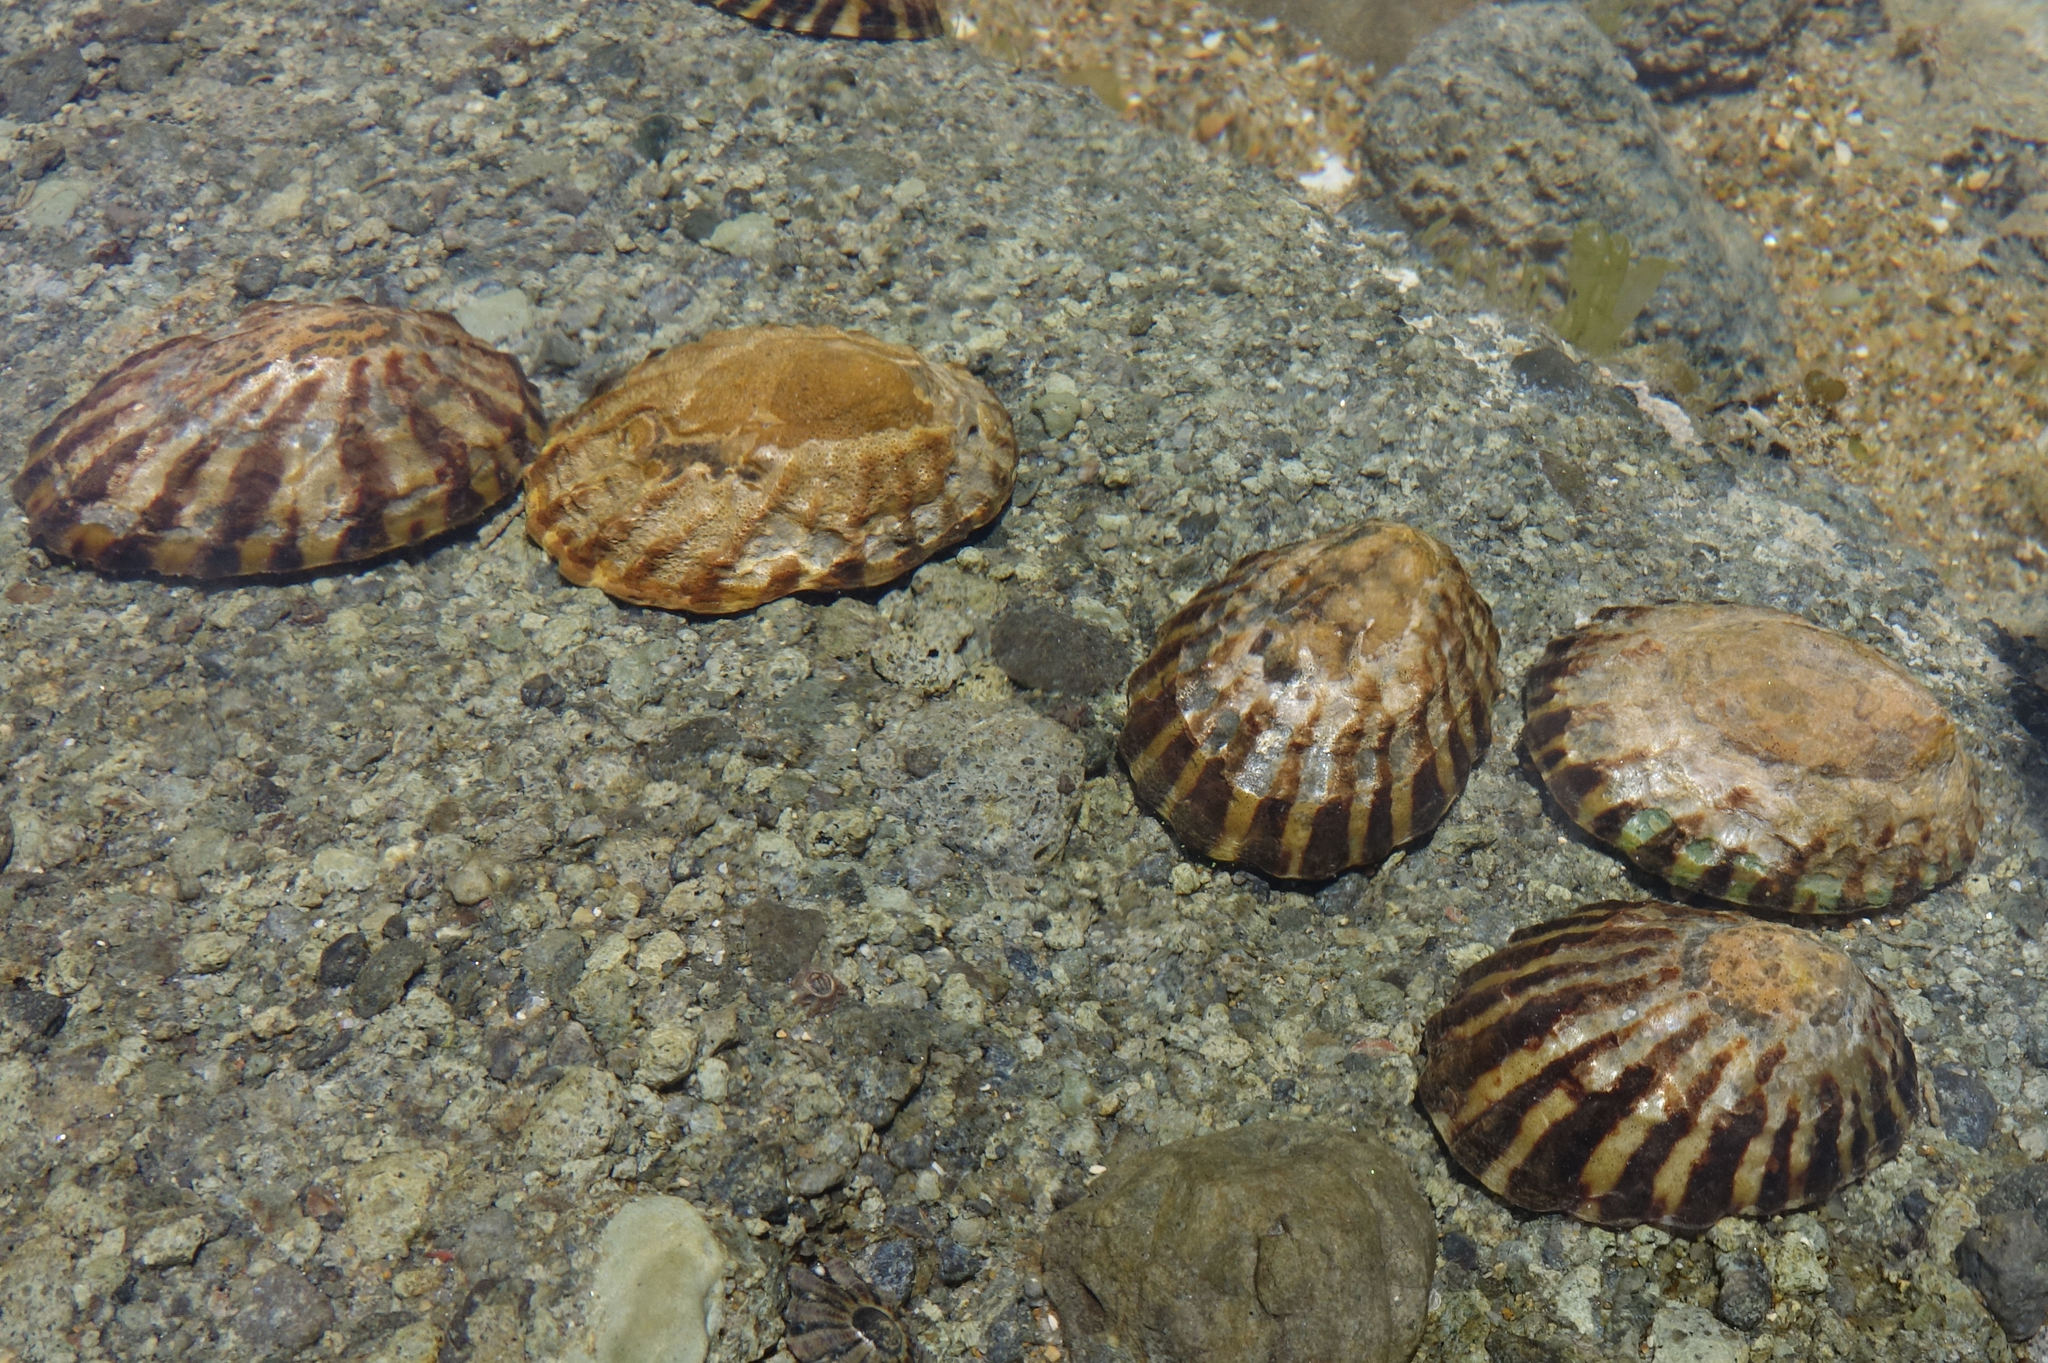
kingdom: Animalia
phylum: Mollusca
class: Gastropoda
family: Nacellidae
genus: Cellana
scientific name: Cellana strigilis
